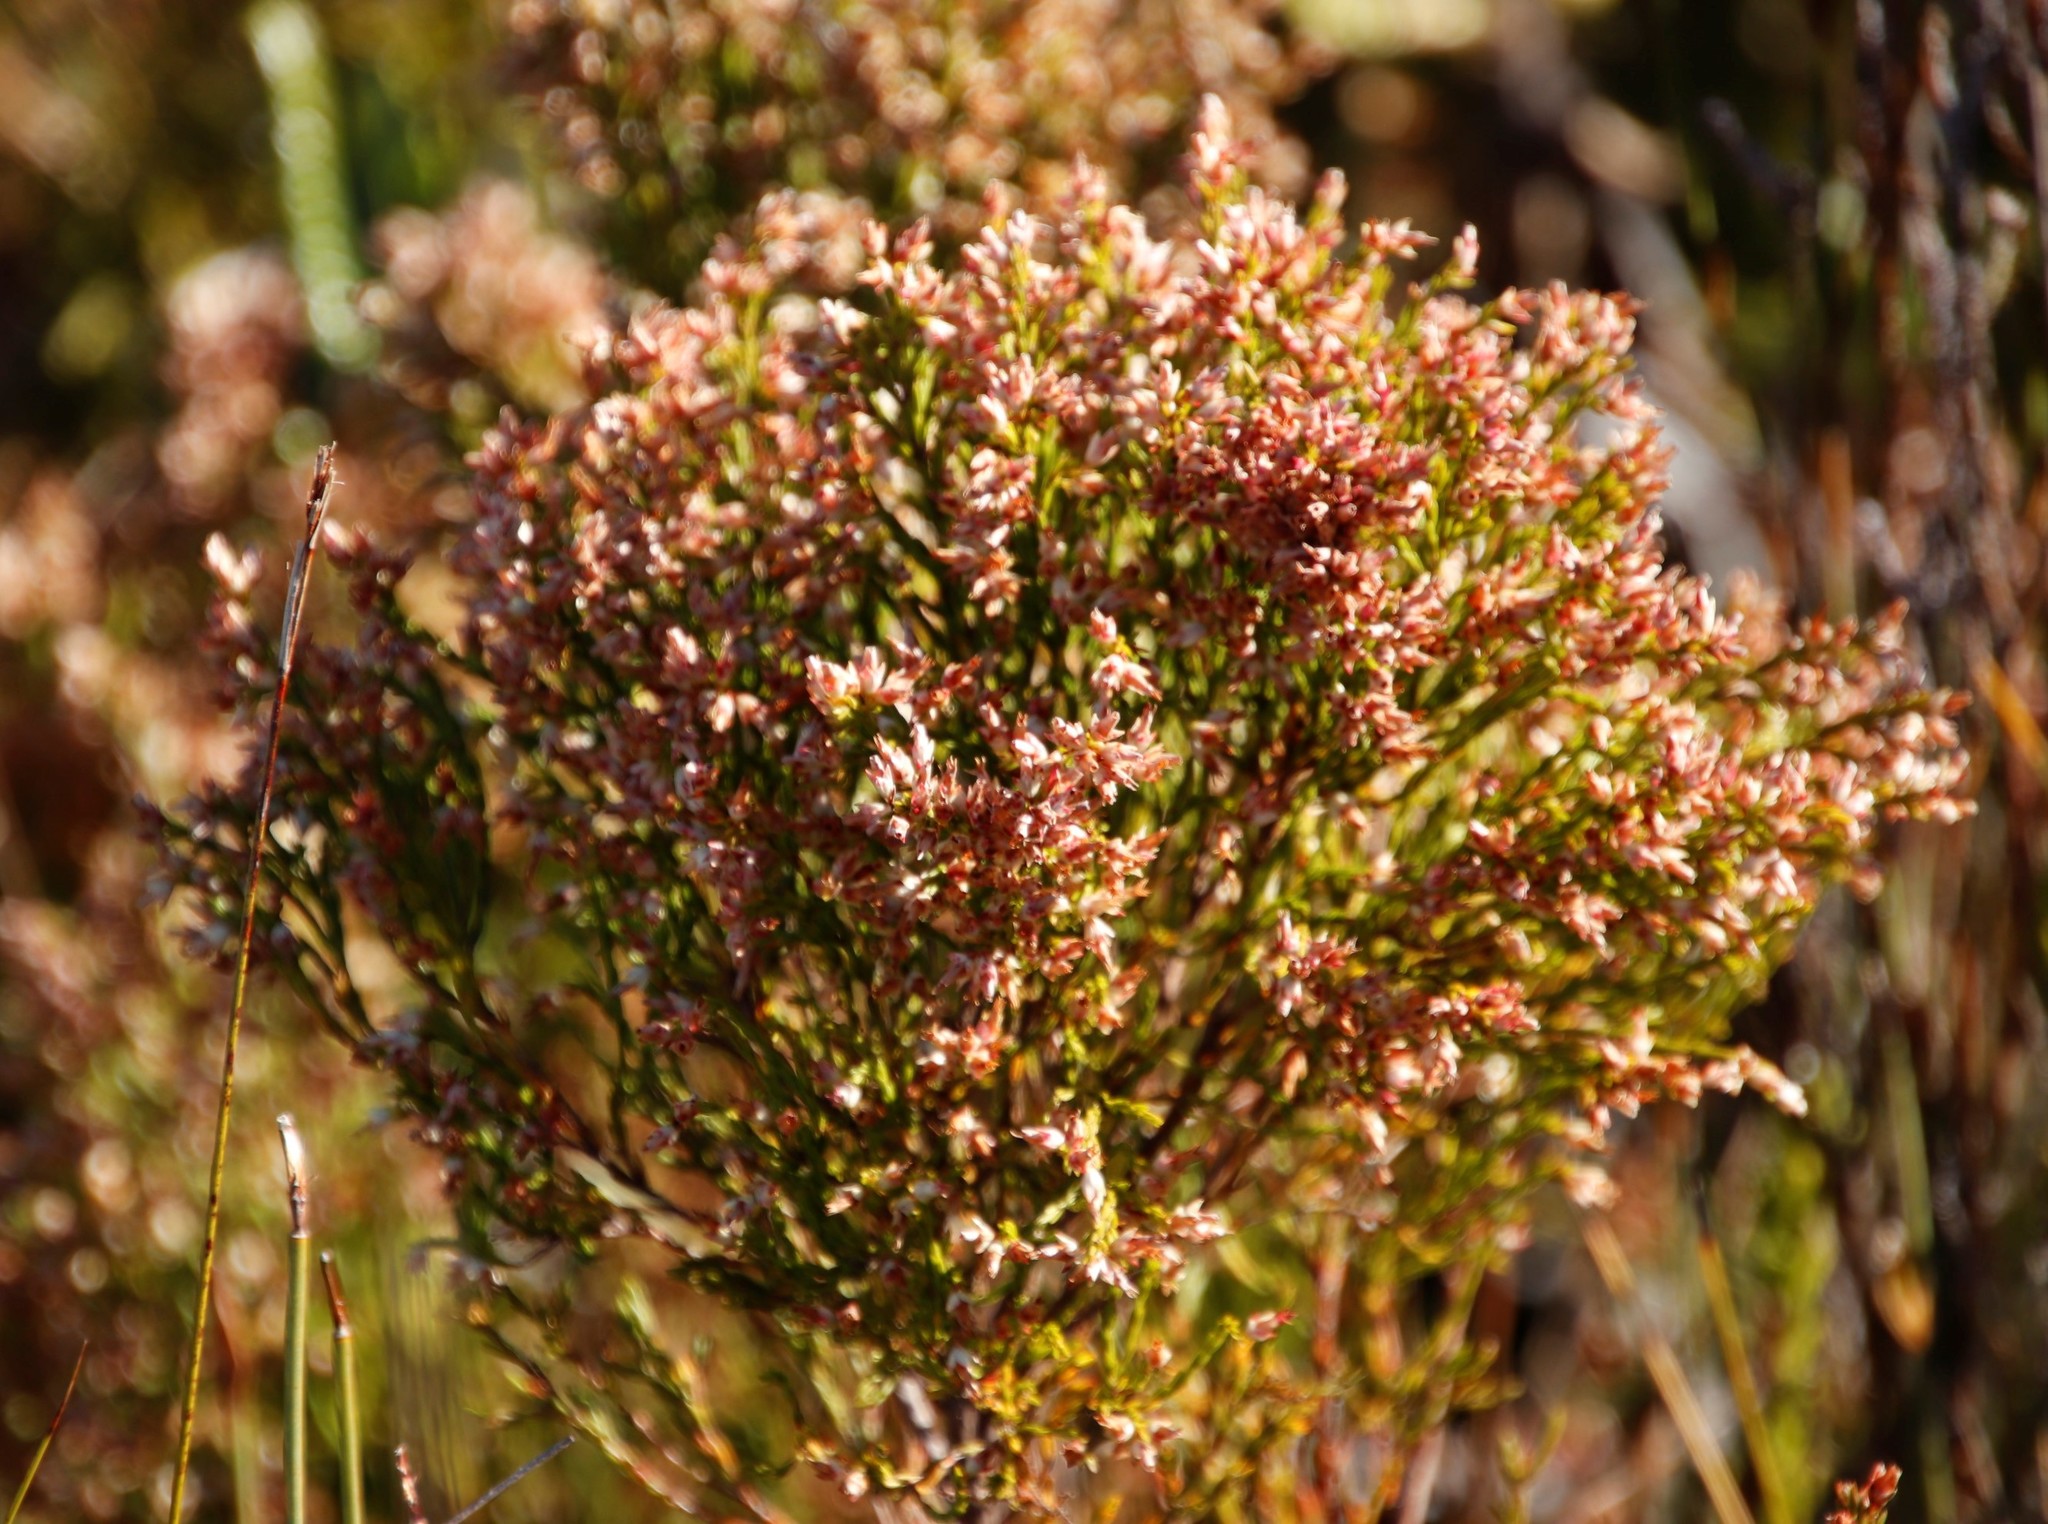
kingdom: Plantae
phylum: Tracheophyta
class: Magnoliopsida
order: Ericales
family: Ericaceae
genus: Erica
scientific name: Erica lutea
